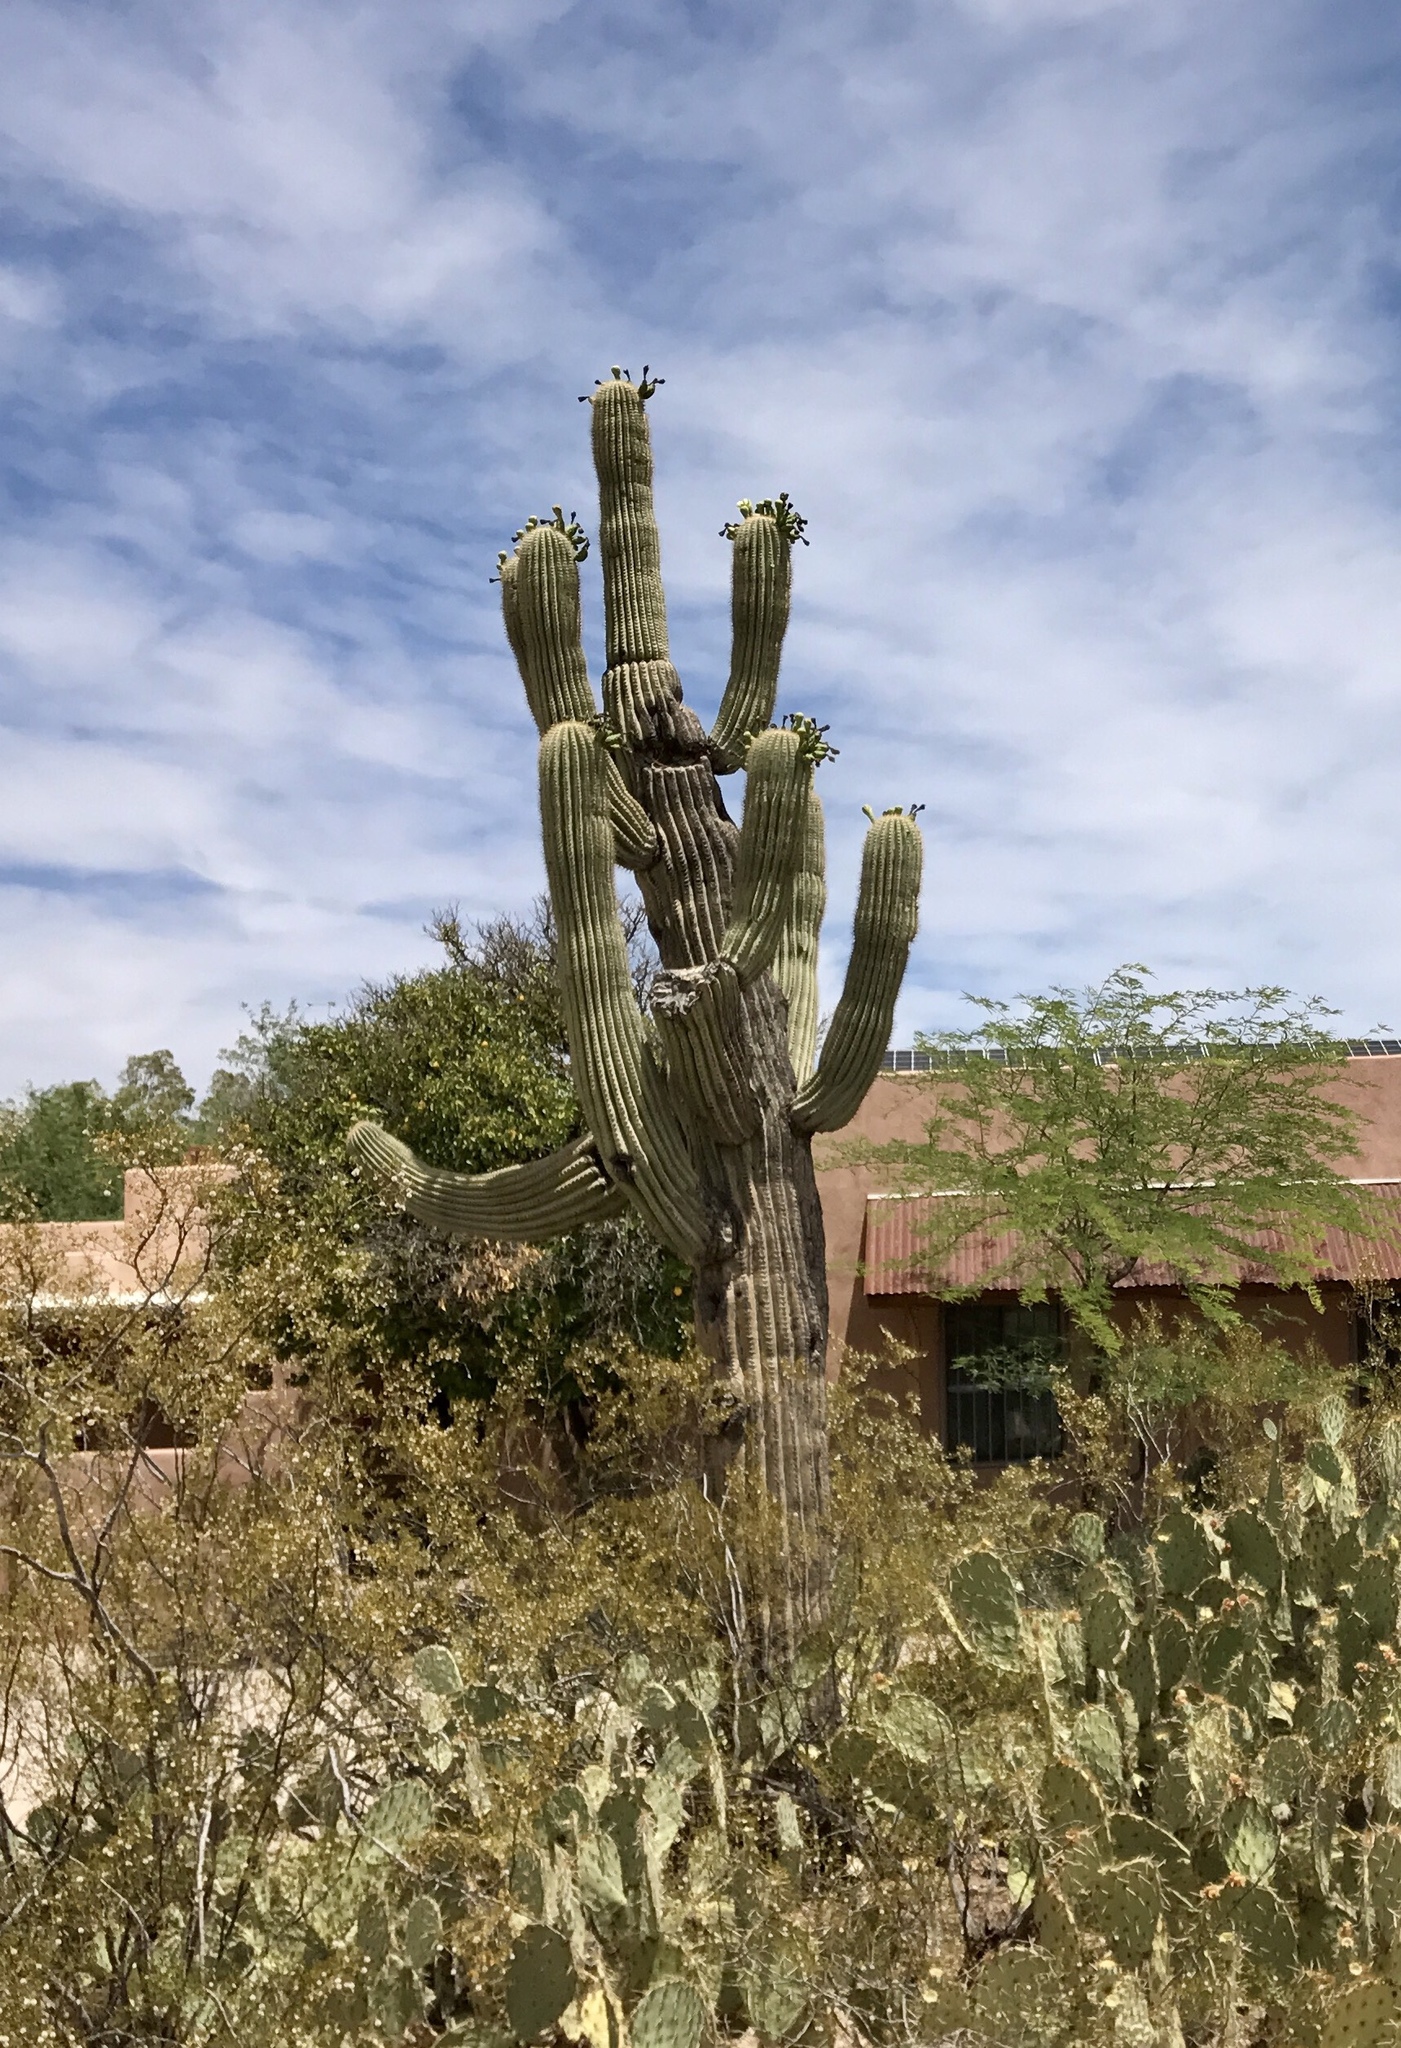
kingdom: Plantae
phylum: Tracheophyta
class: Magnoliopsida
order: Caryophyllales
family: Cactaceae
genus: Carnegiea
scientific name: Carnegiea gigantea
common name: Saguaro
